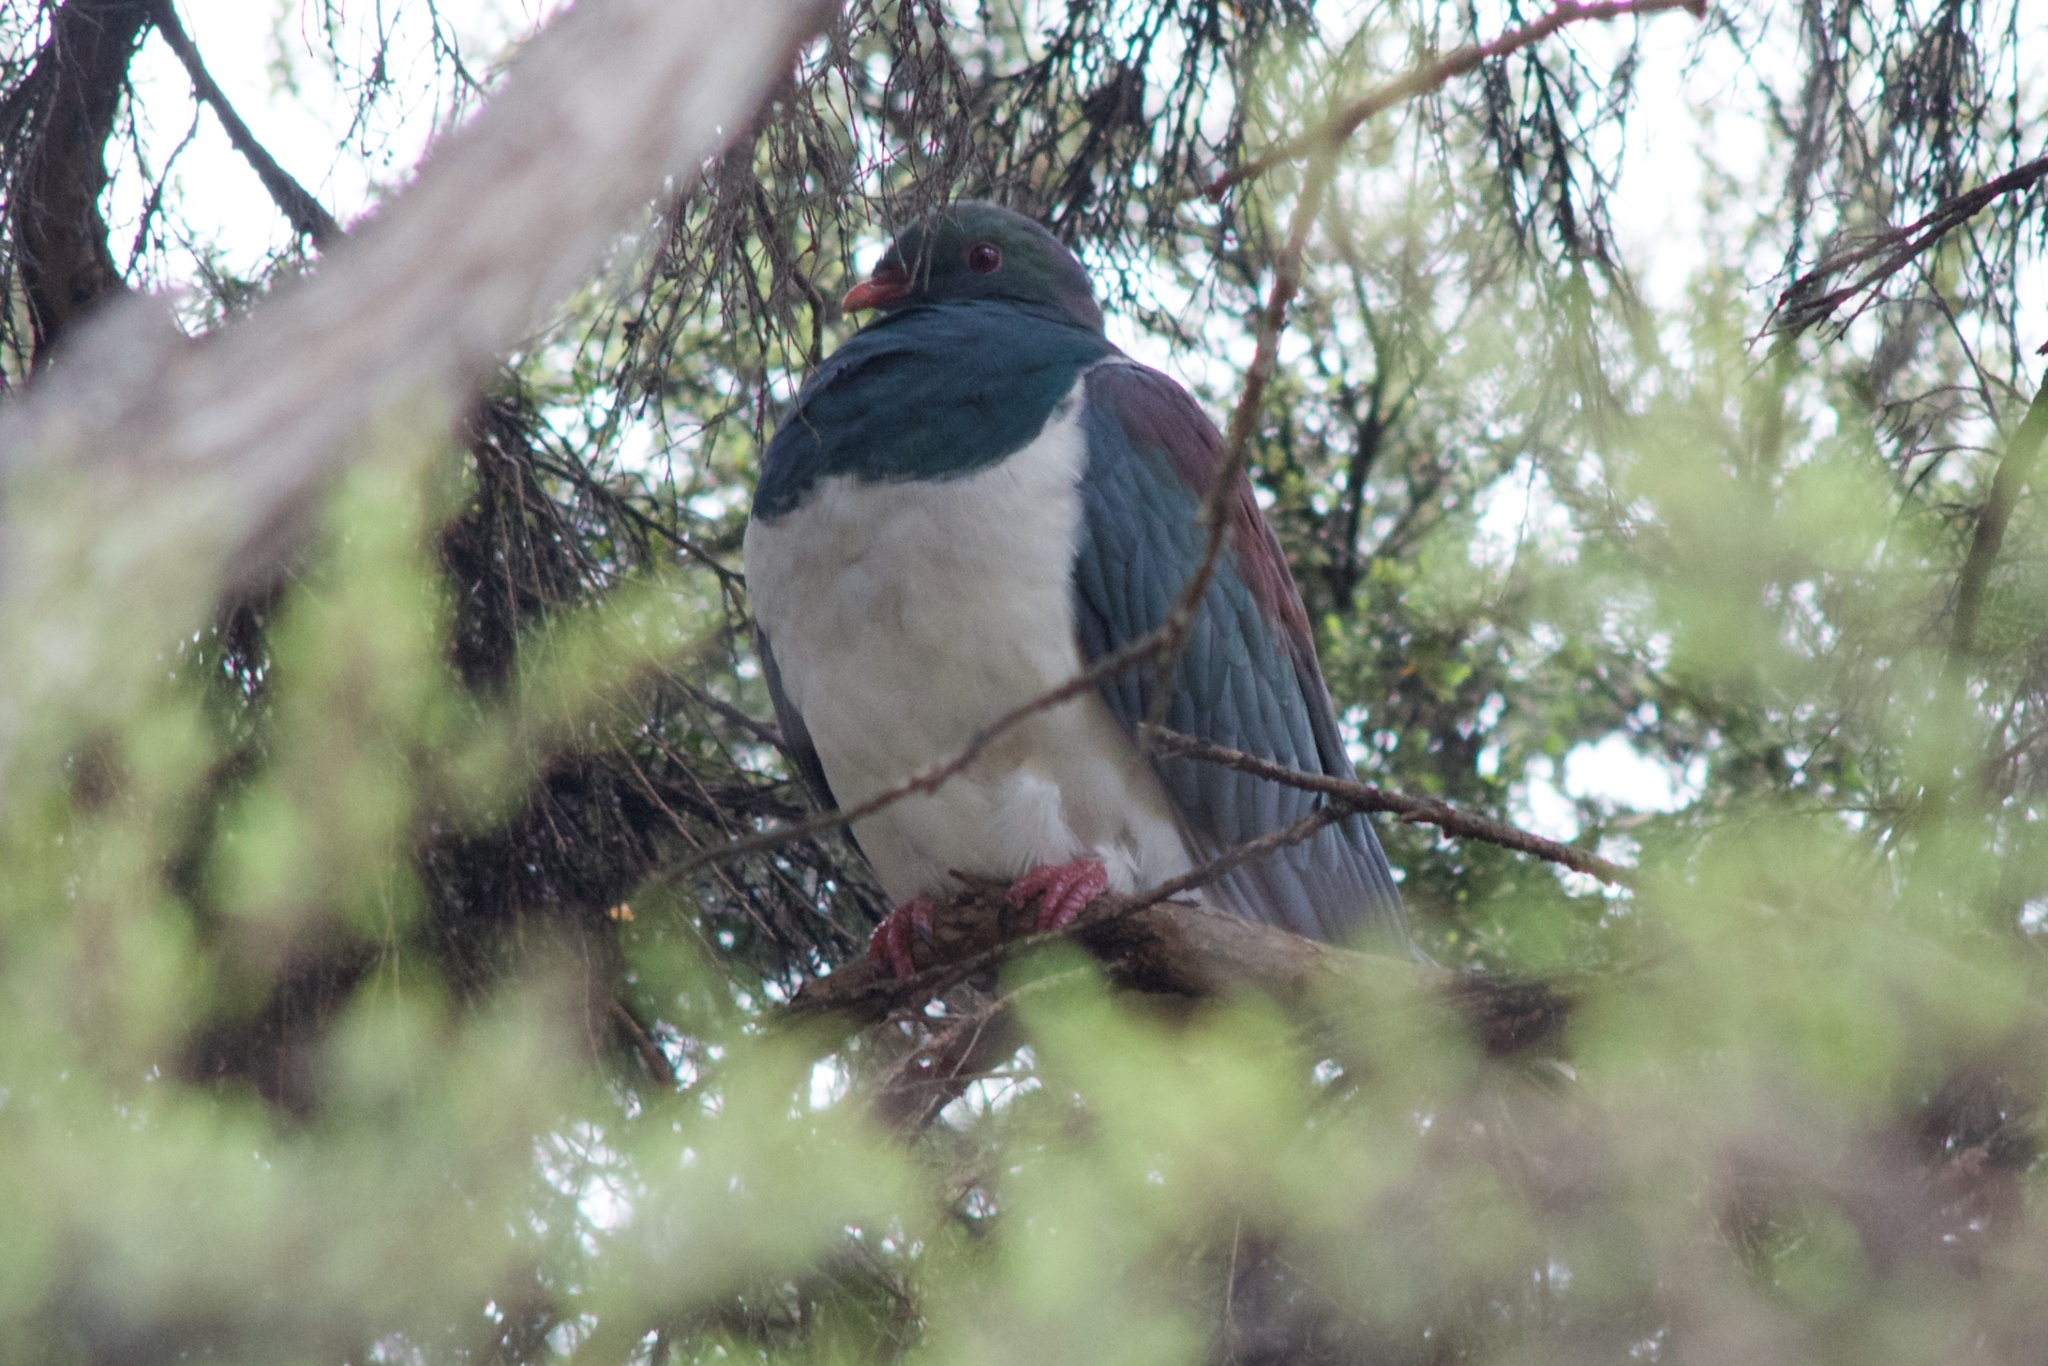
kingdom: Animalia
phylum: Chordata
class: Aves
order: Columbiformes
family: Columbidae
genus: Hemiphaga
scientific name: Hemiphaga novaeseelandiae
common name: New zealand pigeon
